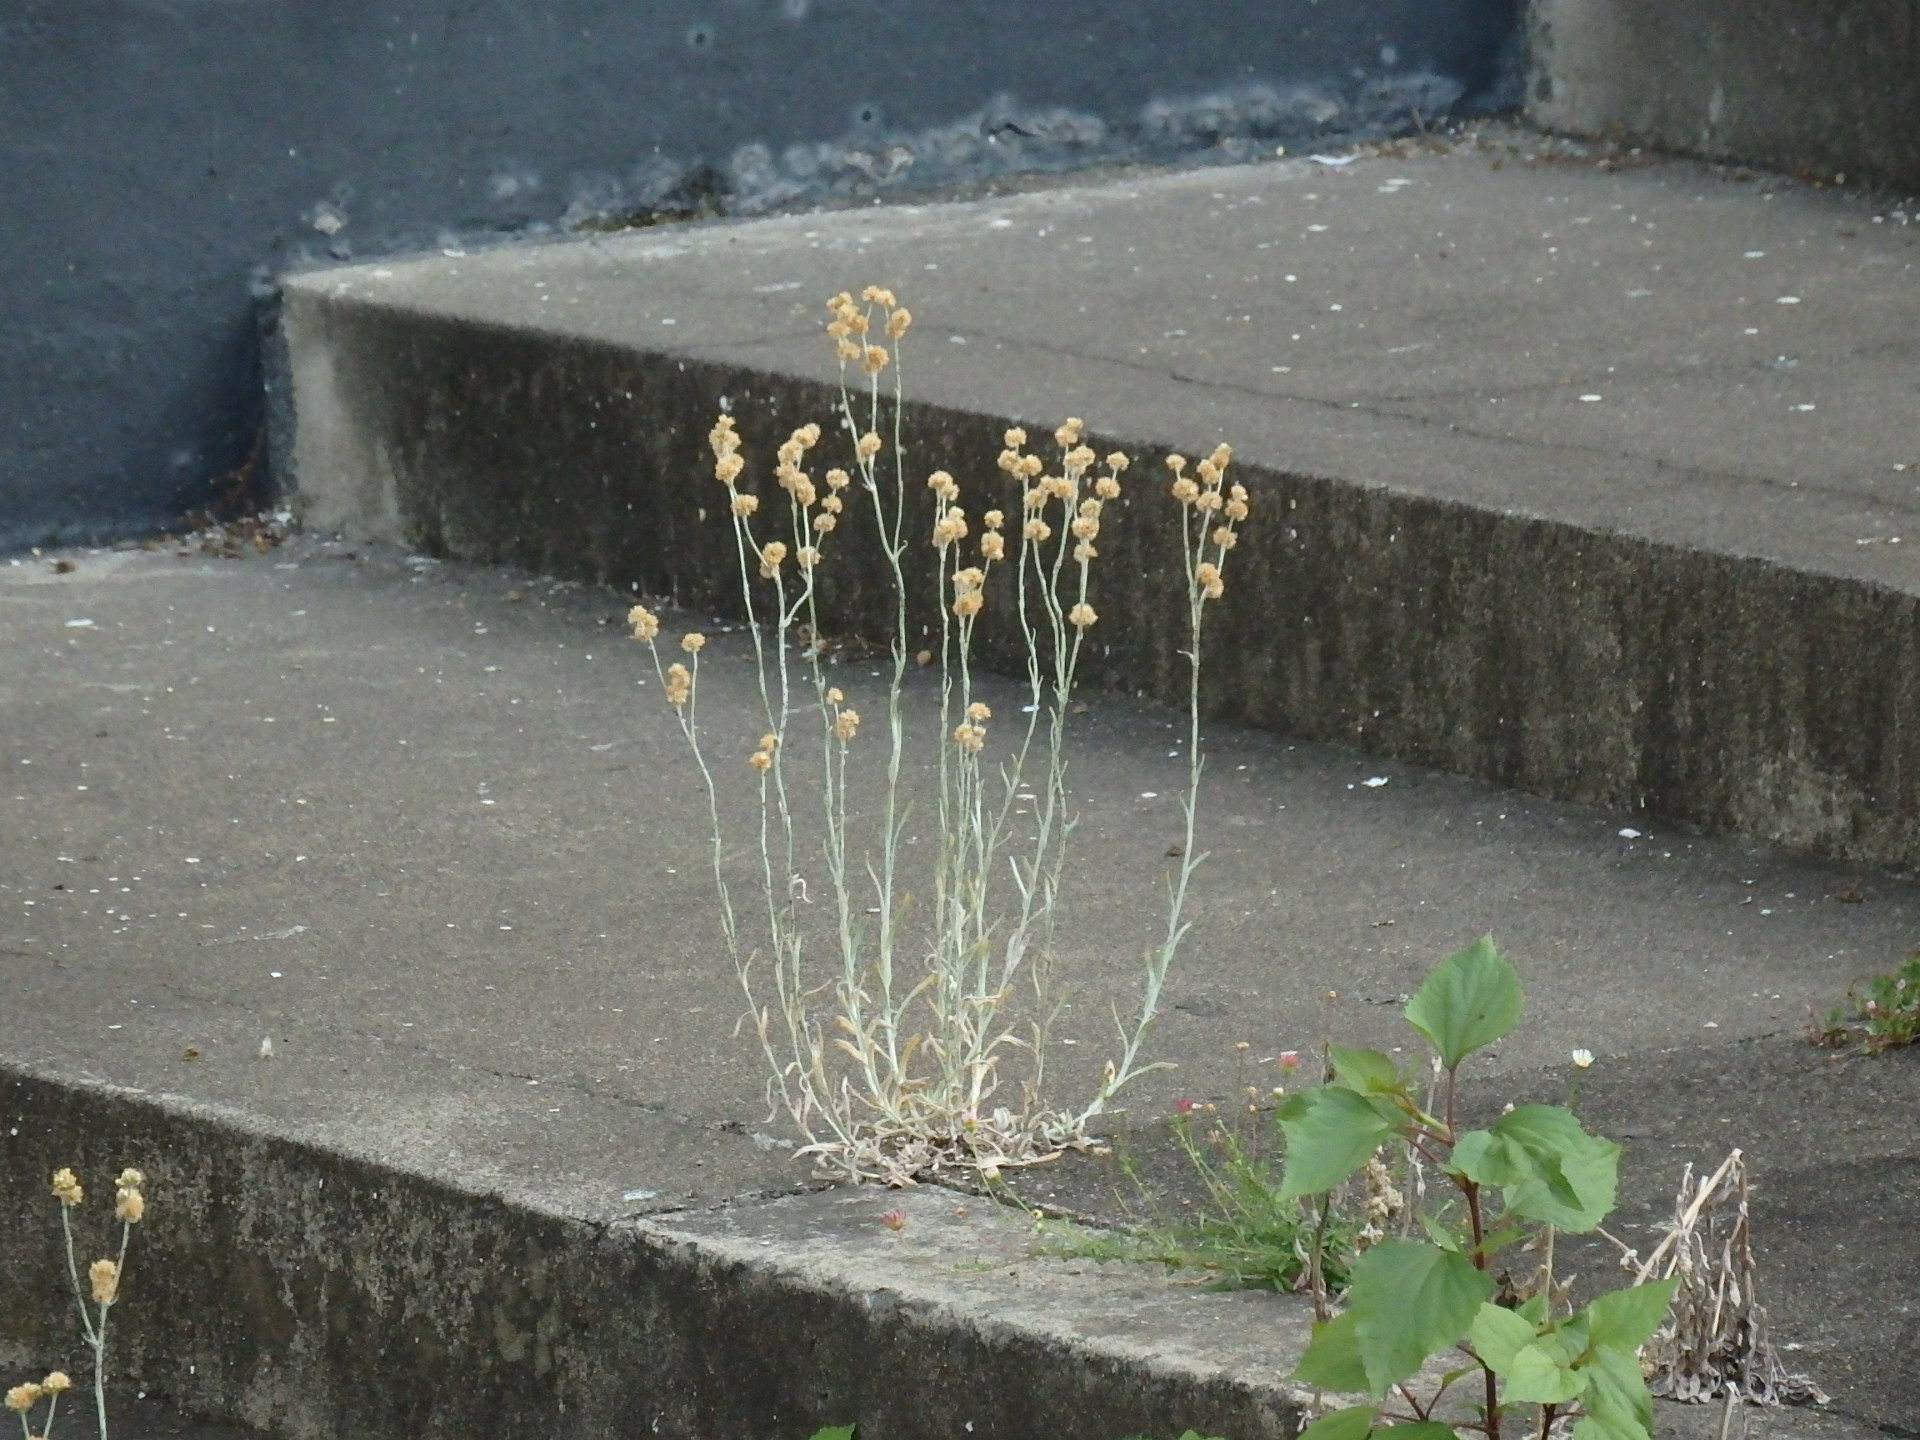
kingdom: Plantae
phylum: Tracheophyta
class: Magnoliopsida
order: Asterales
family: Asteraceae
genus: Helichrysum
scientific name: Helichrysum luteoalbum
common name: Daisy
